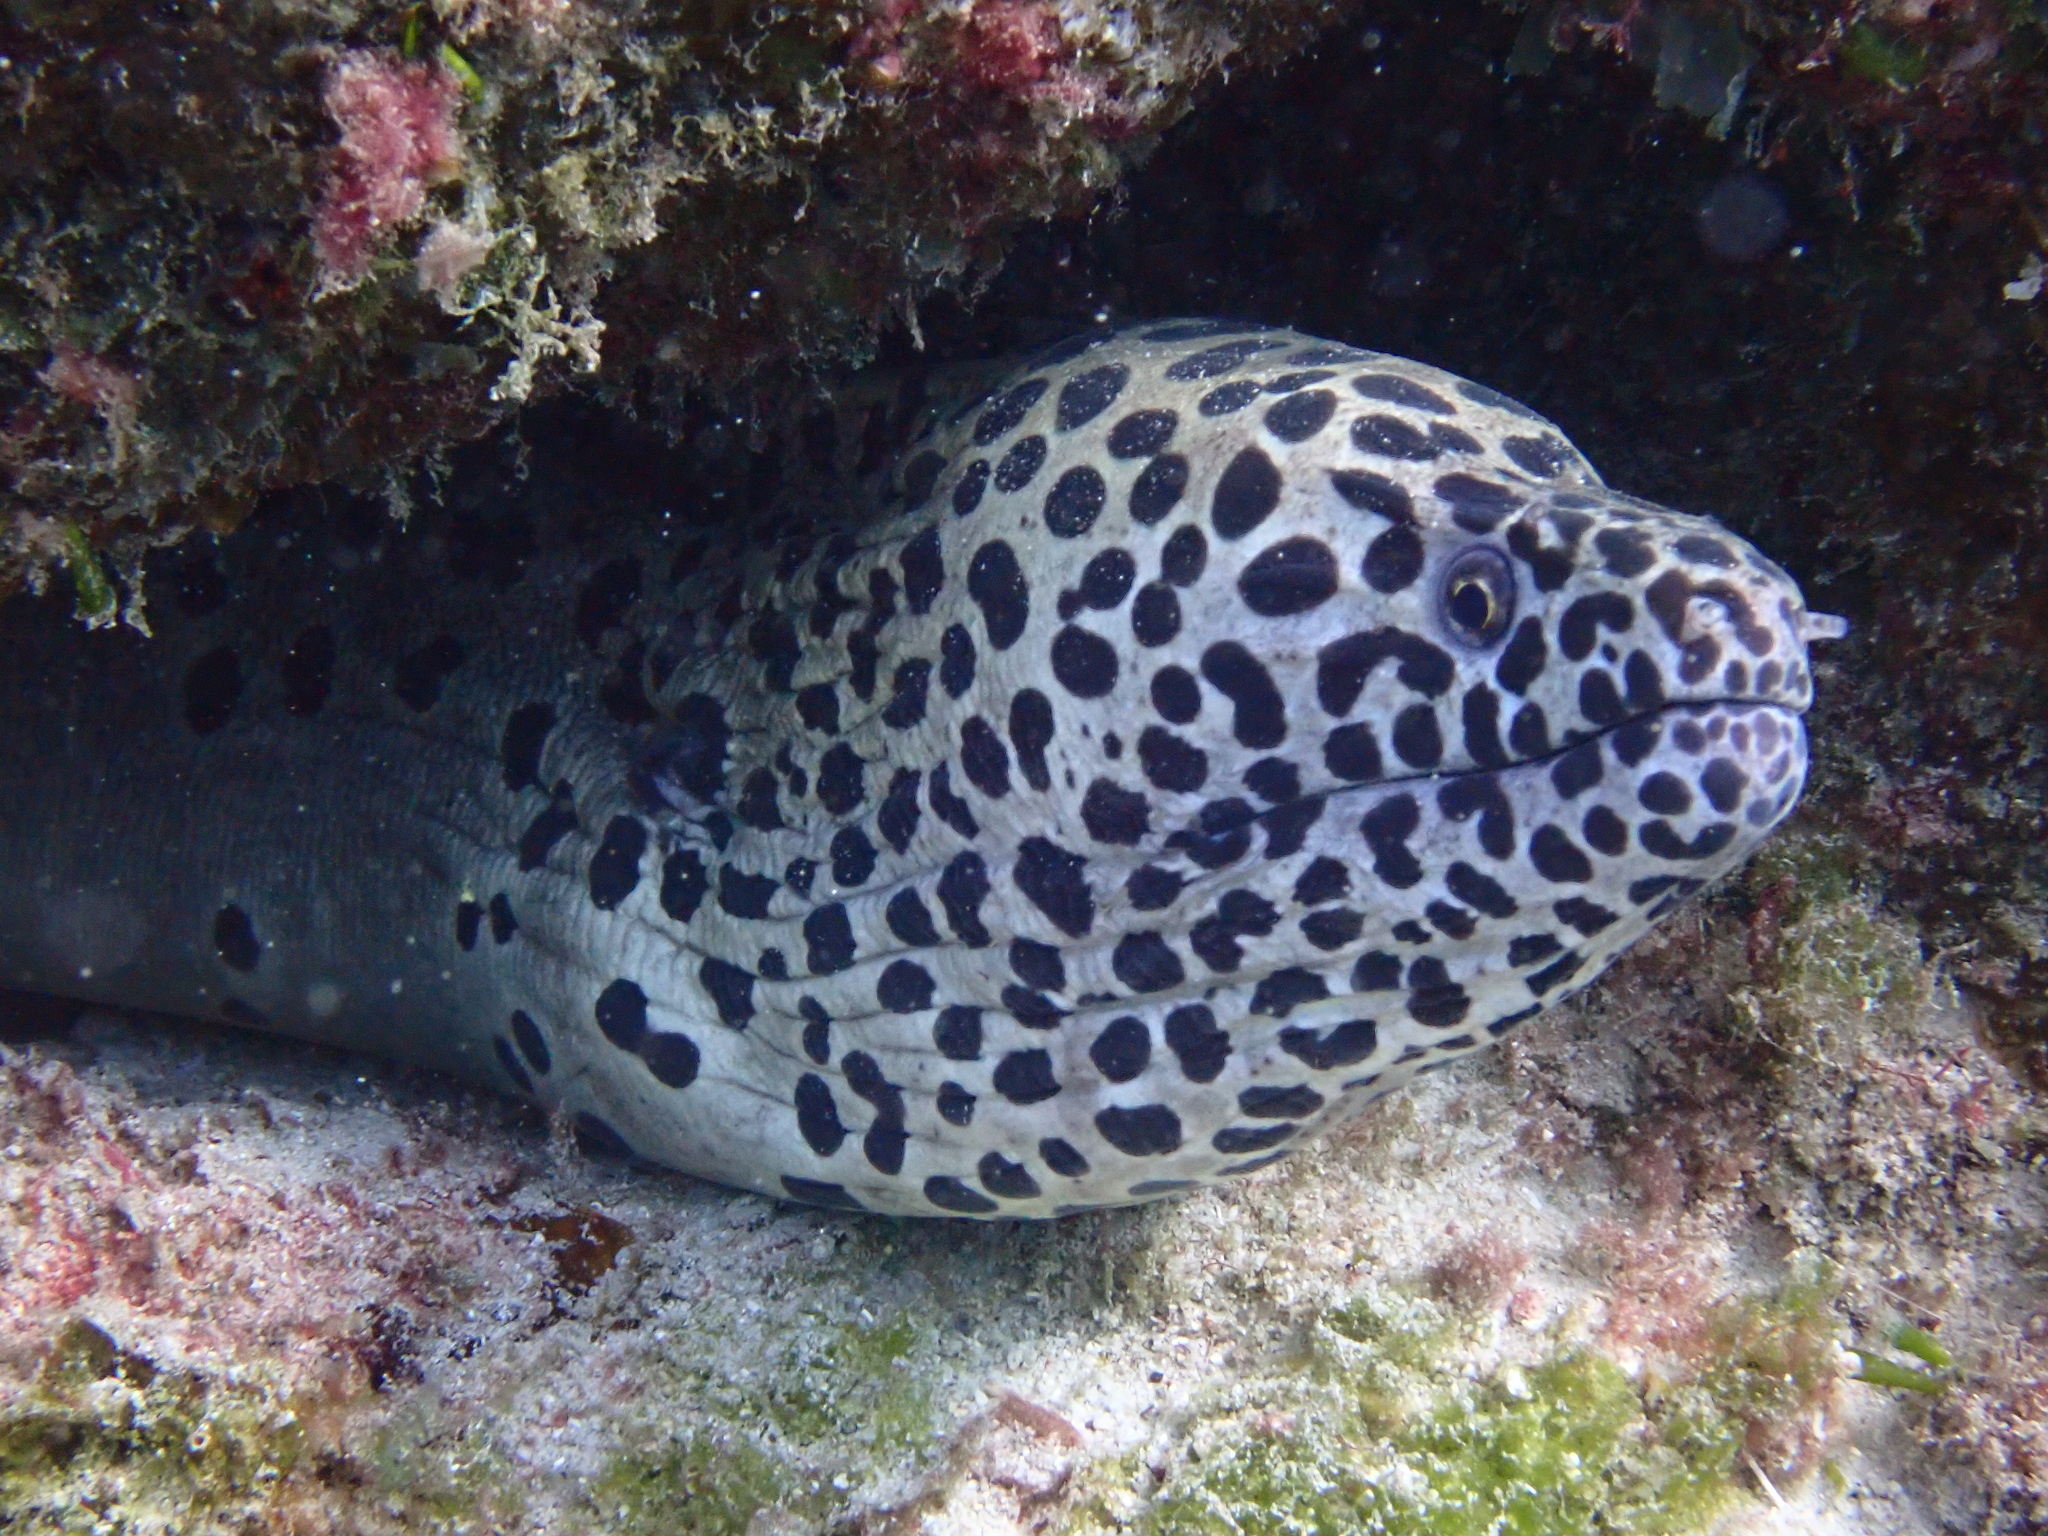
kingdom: Animalia
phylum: Chordata
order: Anguilliformes
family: Muraenidae
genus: Gymnothorax
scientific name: Gymnothorax isingteena
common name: Spotted moray
